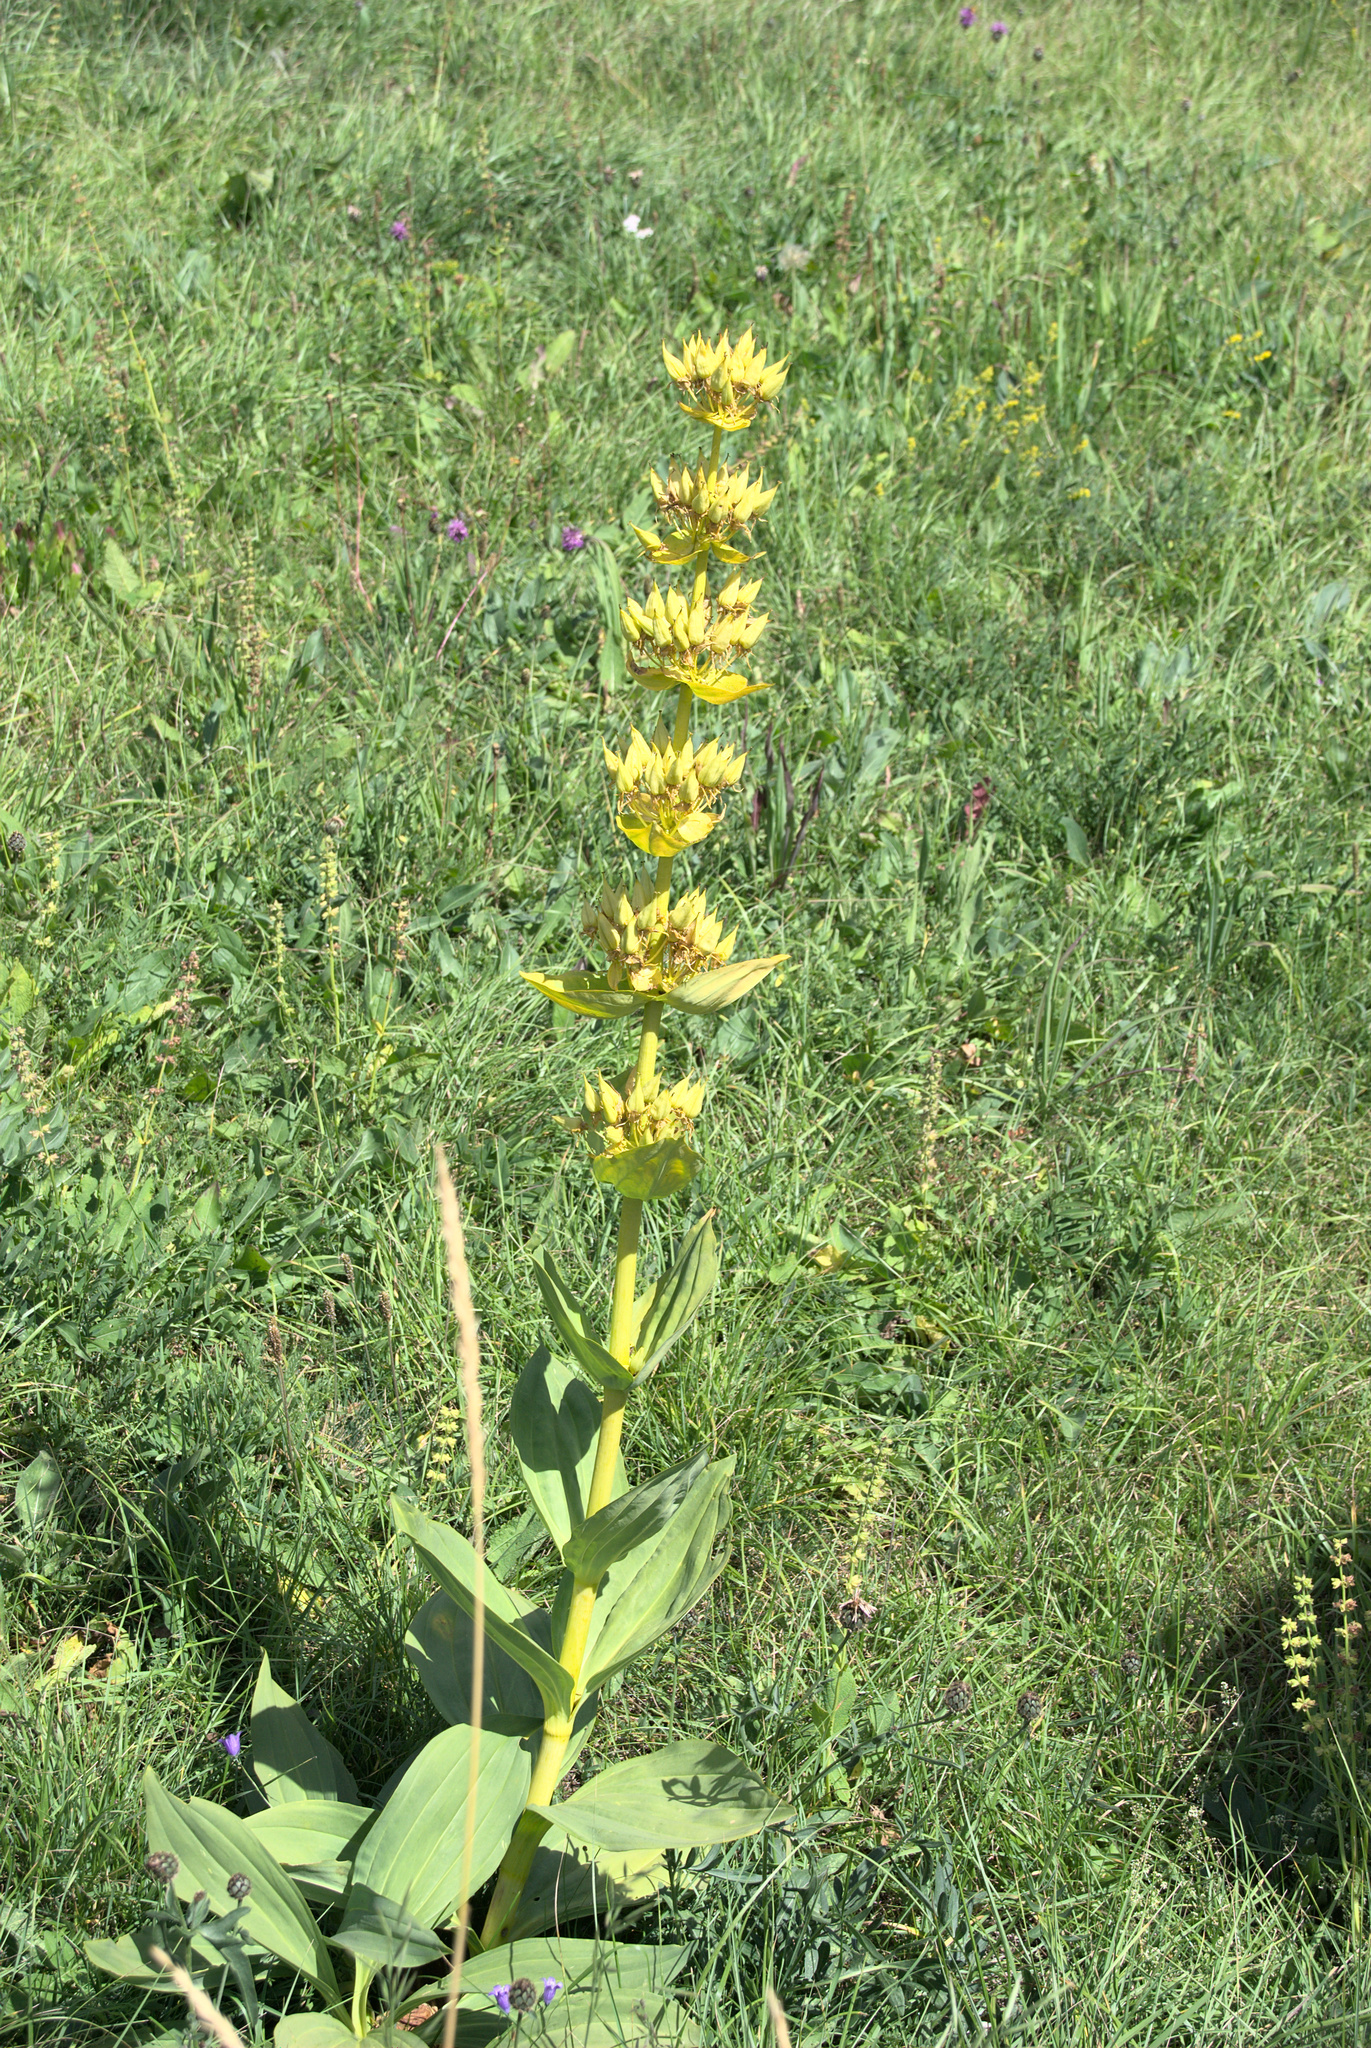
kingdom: Plantae
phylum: Tracheophyta
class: Magnoliopsida
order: Gentianales
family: Gentianaceae
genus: Gentiana
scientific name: Gentiana lutea
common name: Great yellow gentian
